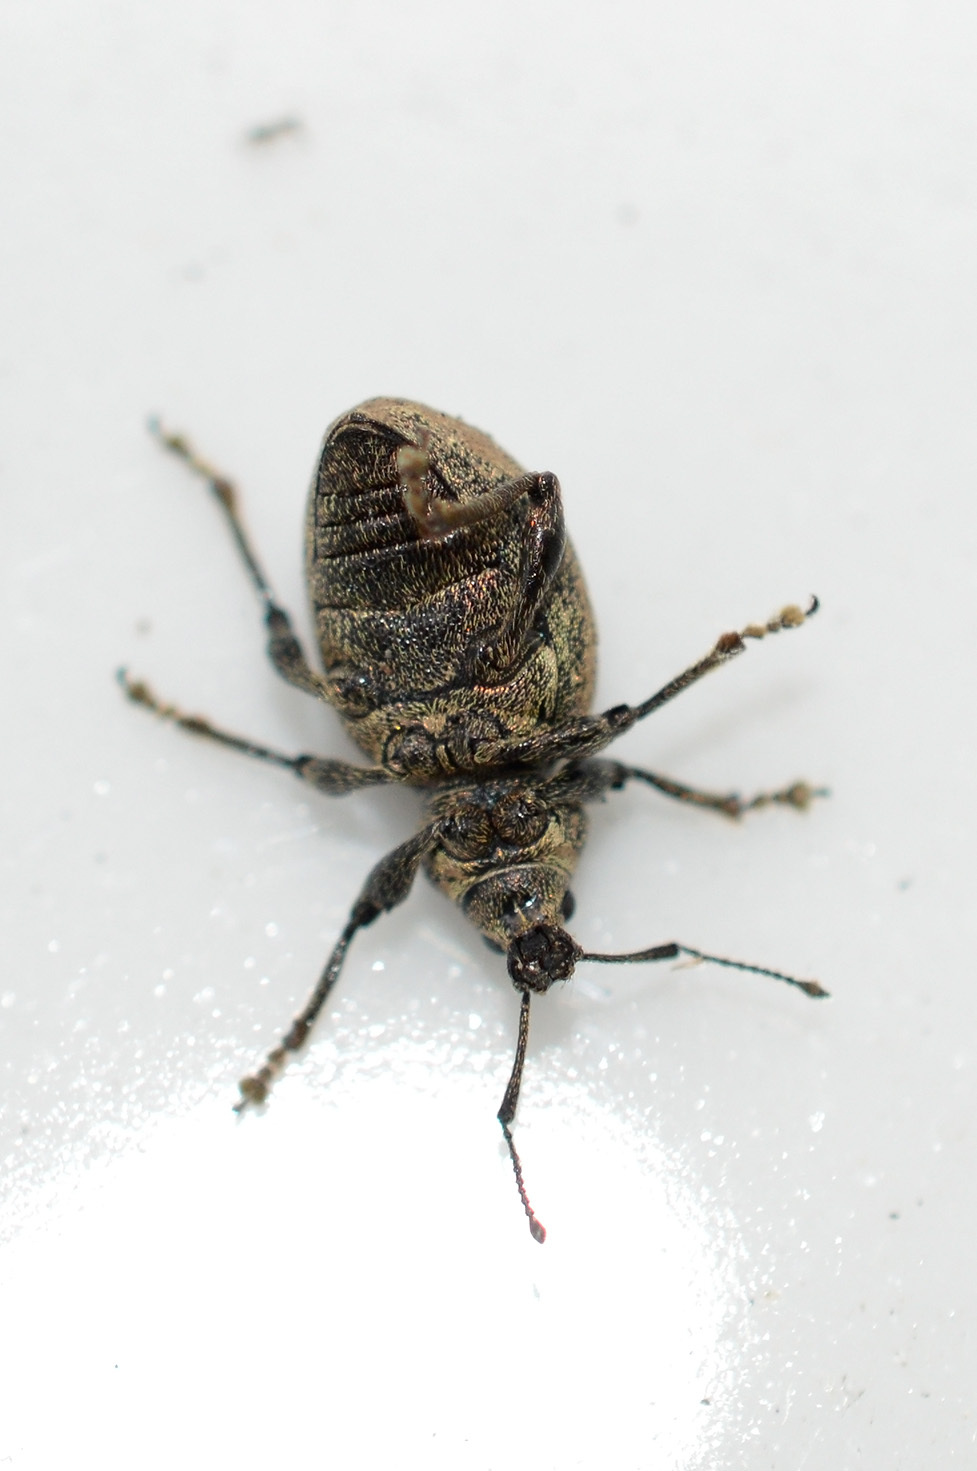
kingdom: Animalia
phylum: Arthropoda
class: Insecta
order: Coleoptera
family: Curculionidae
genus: Otiorhynchus
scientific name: Otiorhynchus ligustici
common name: Weevil
